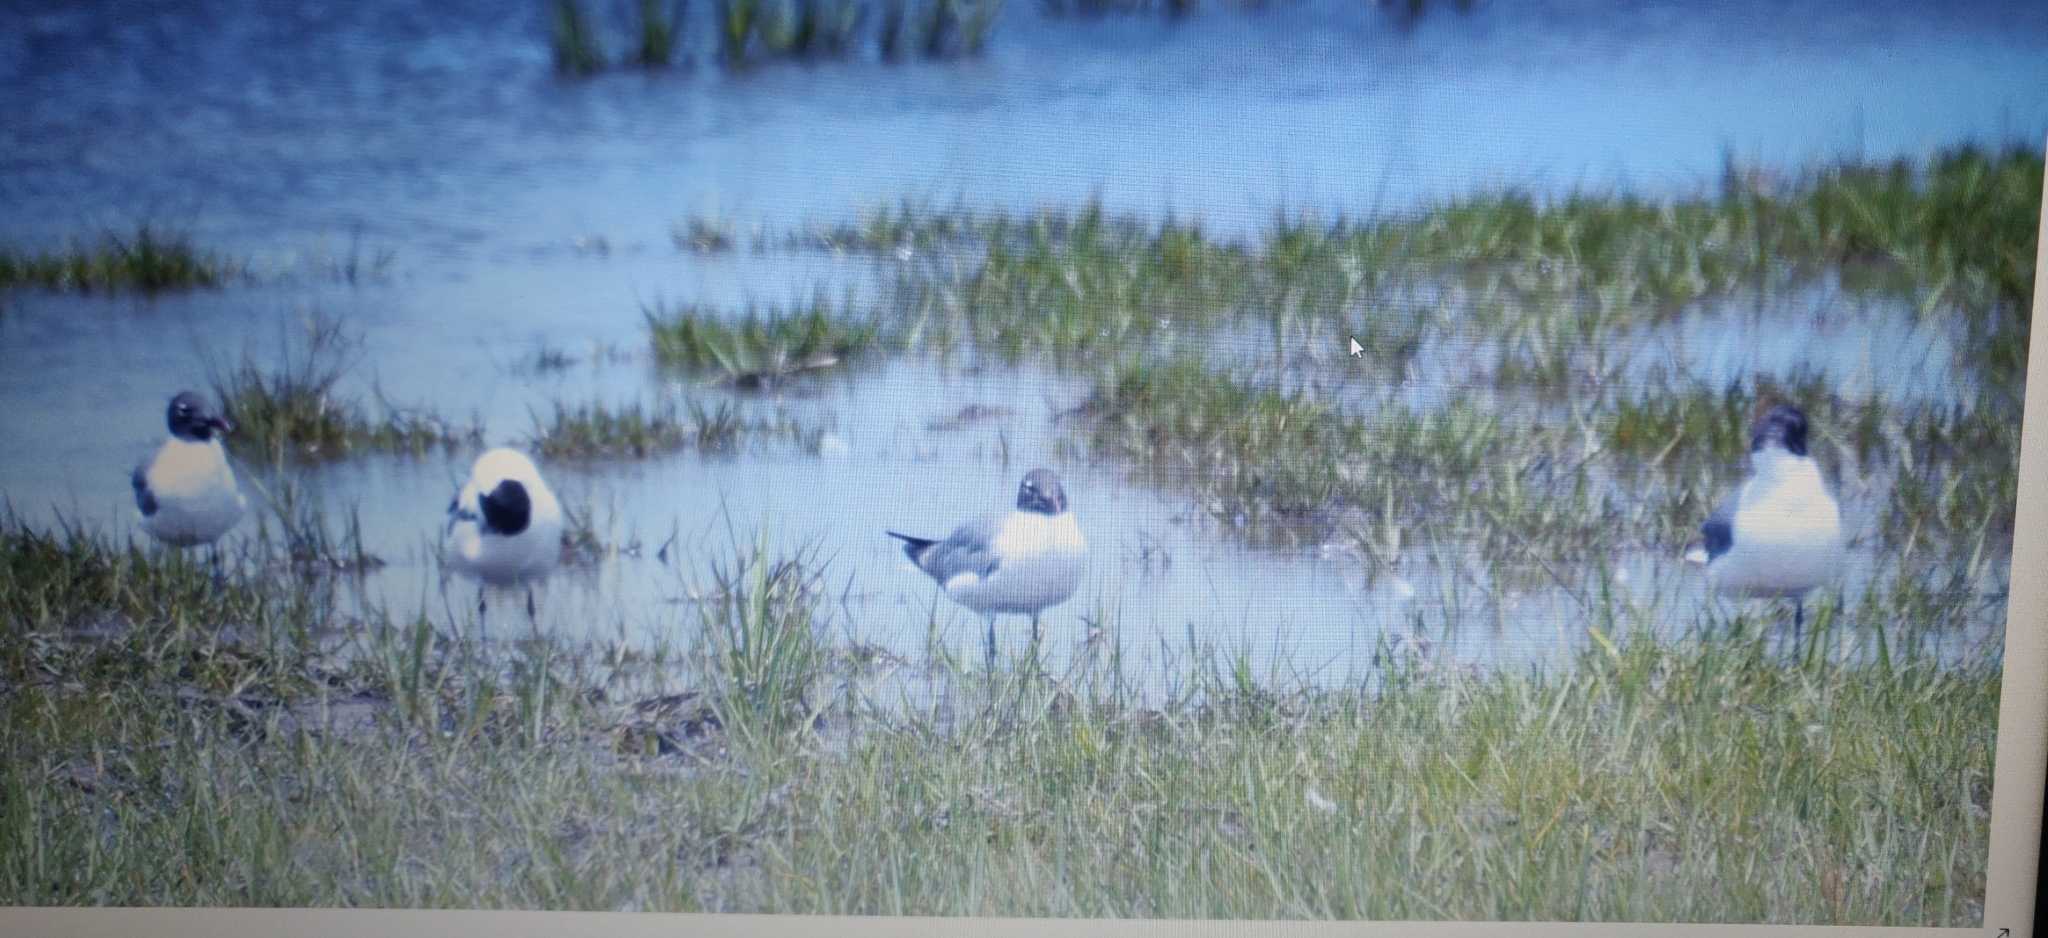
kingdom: Animalia
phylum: Chordata
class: Aves
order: Charadriiformes
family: Laridae
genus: Leucophaeus
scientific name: Leucophaeus atricilla
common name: Laughing gull
